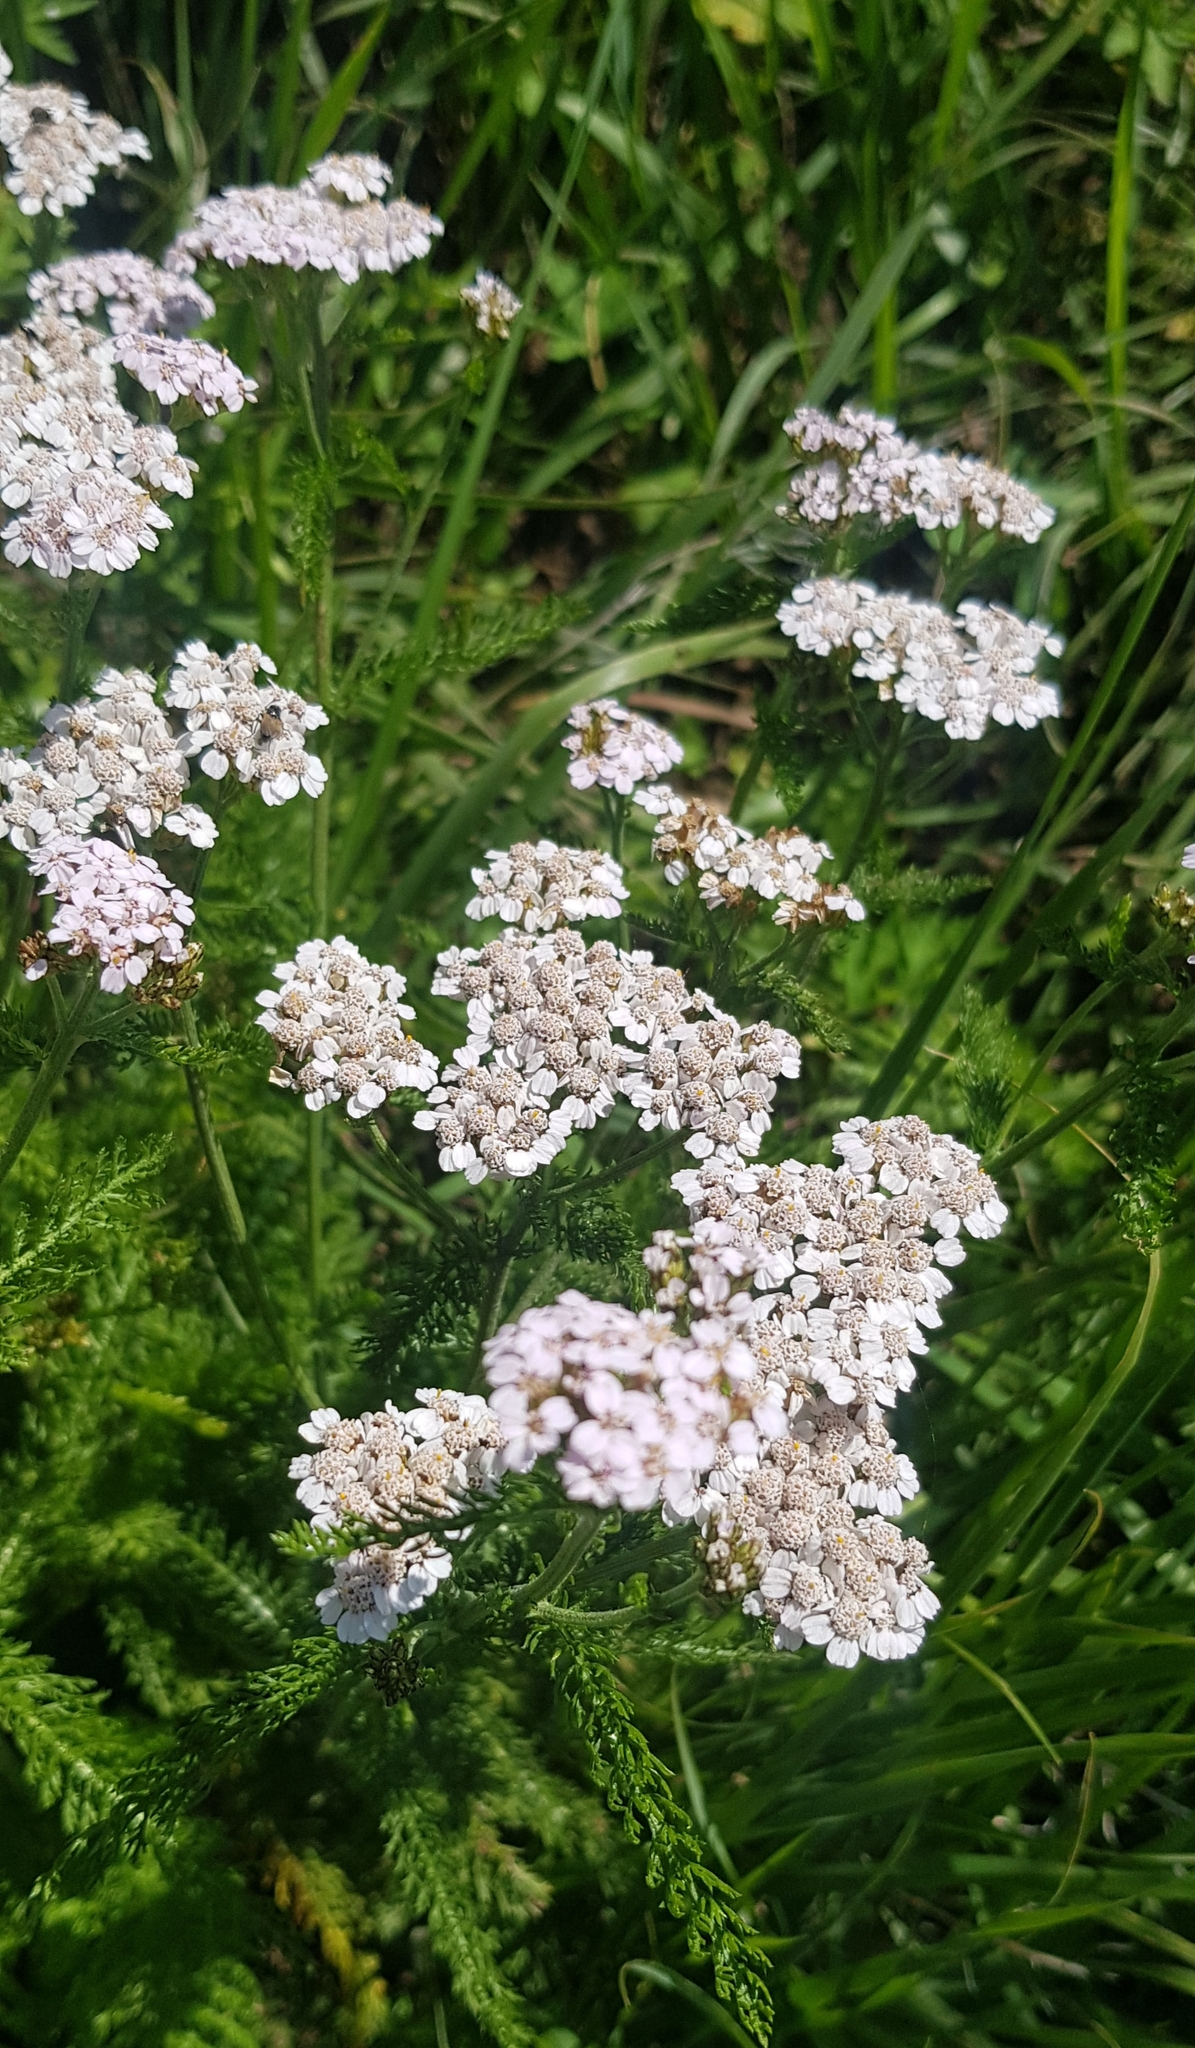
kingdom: Plantae
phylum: Tracheophyta
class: Magnoliopsida
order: Asterales
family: Asteraceae
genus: Achillea
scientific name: Achillea millefolium
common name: Yarrow
